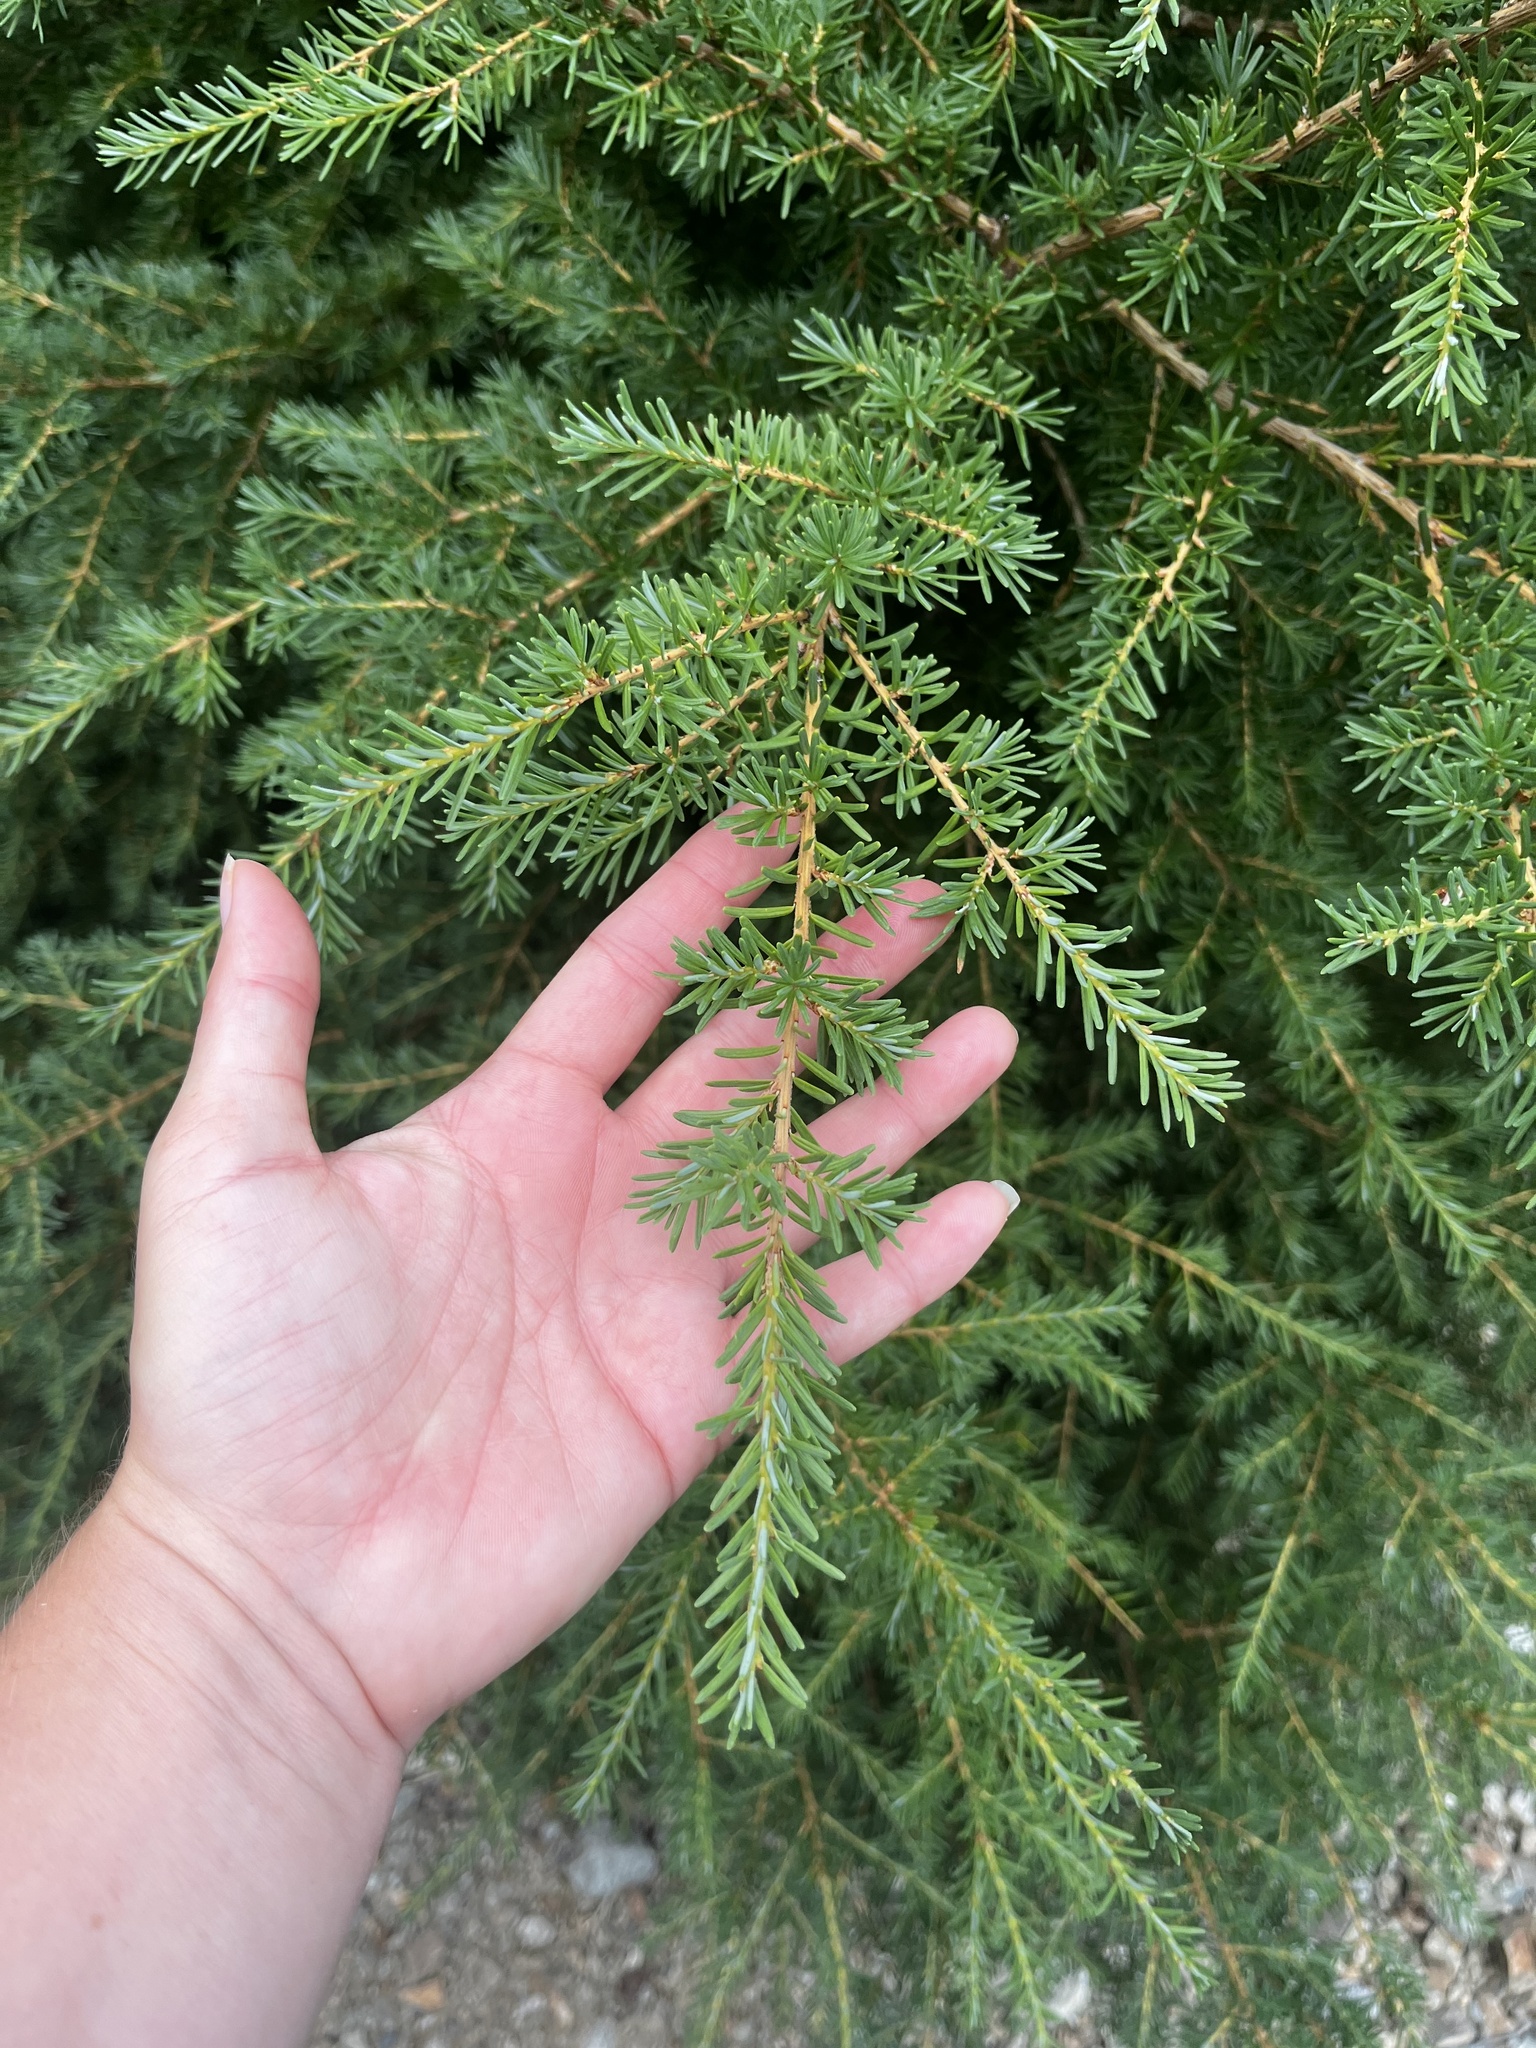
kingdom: Plantae
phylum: Tracheophyta
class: Pinopsida
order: Pinales
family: Pinaceae
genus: Tsuga
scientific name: Tsuga mertensiana
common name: Mountain hemlock
